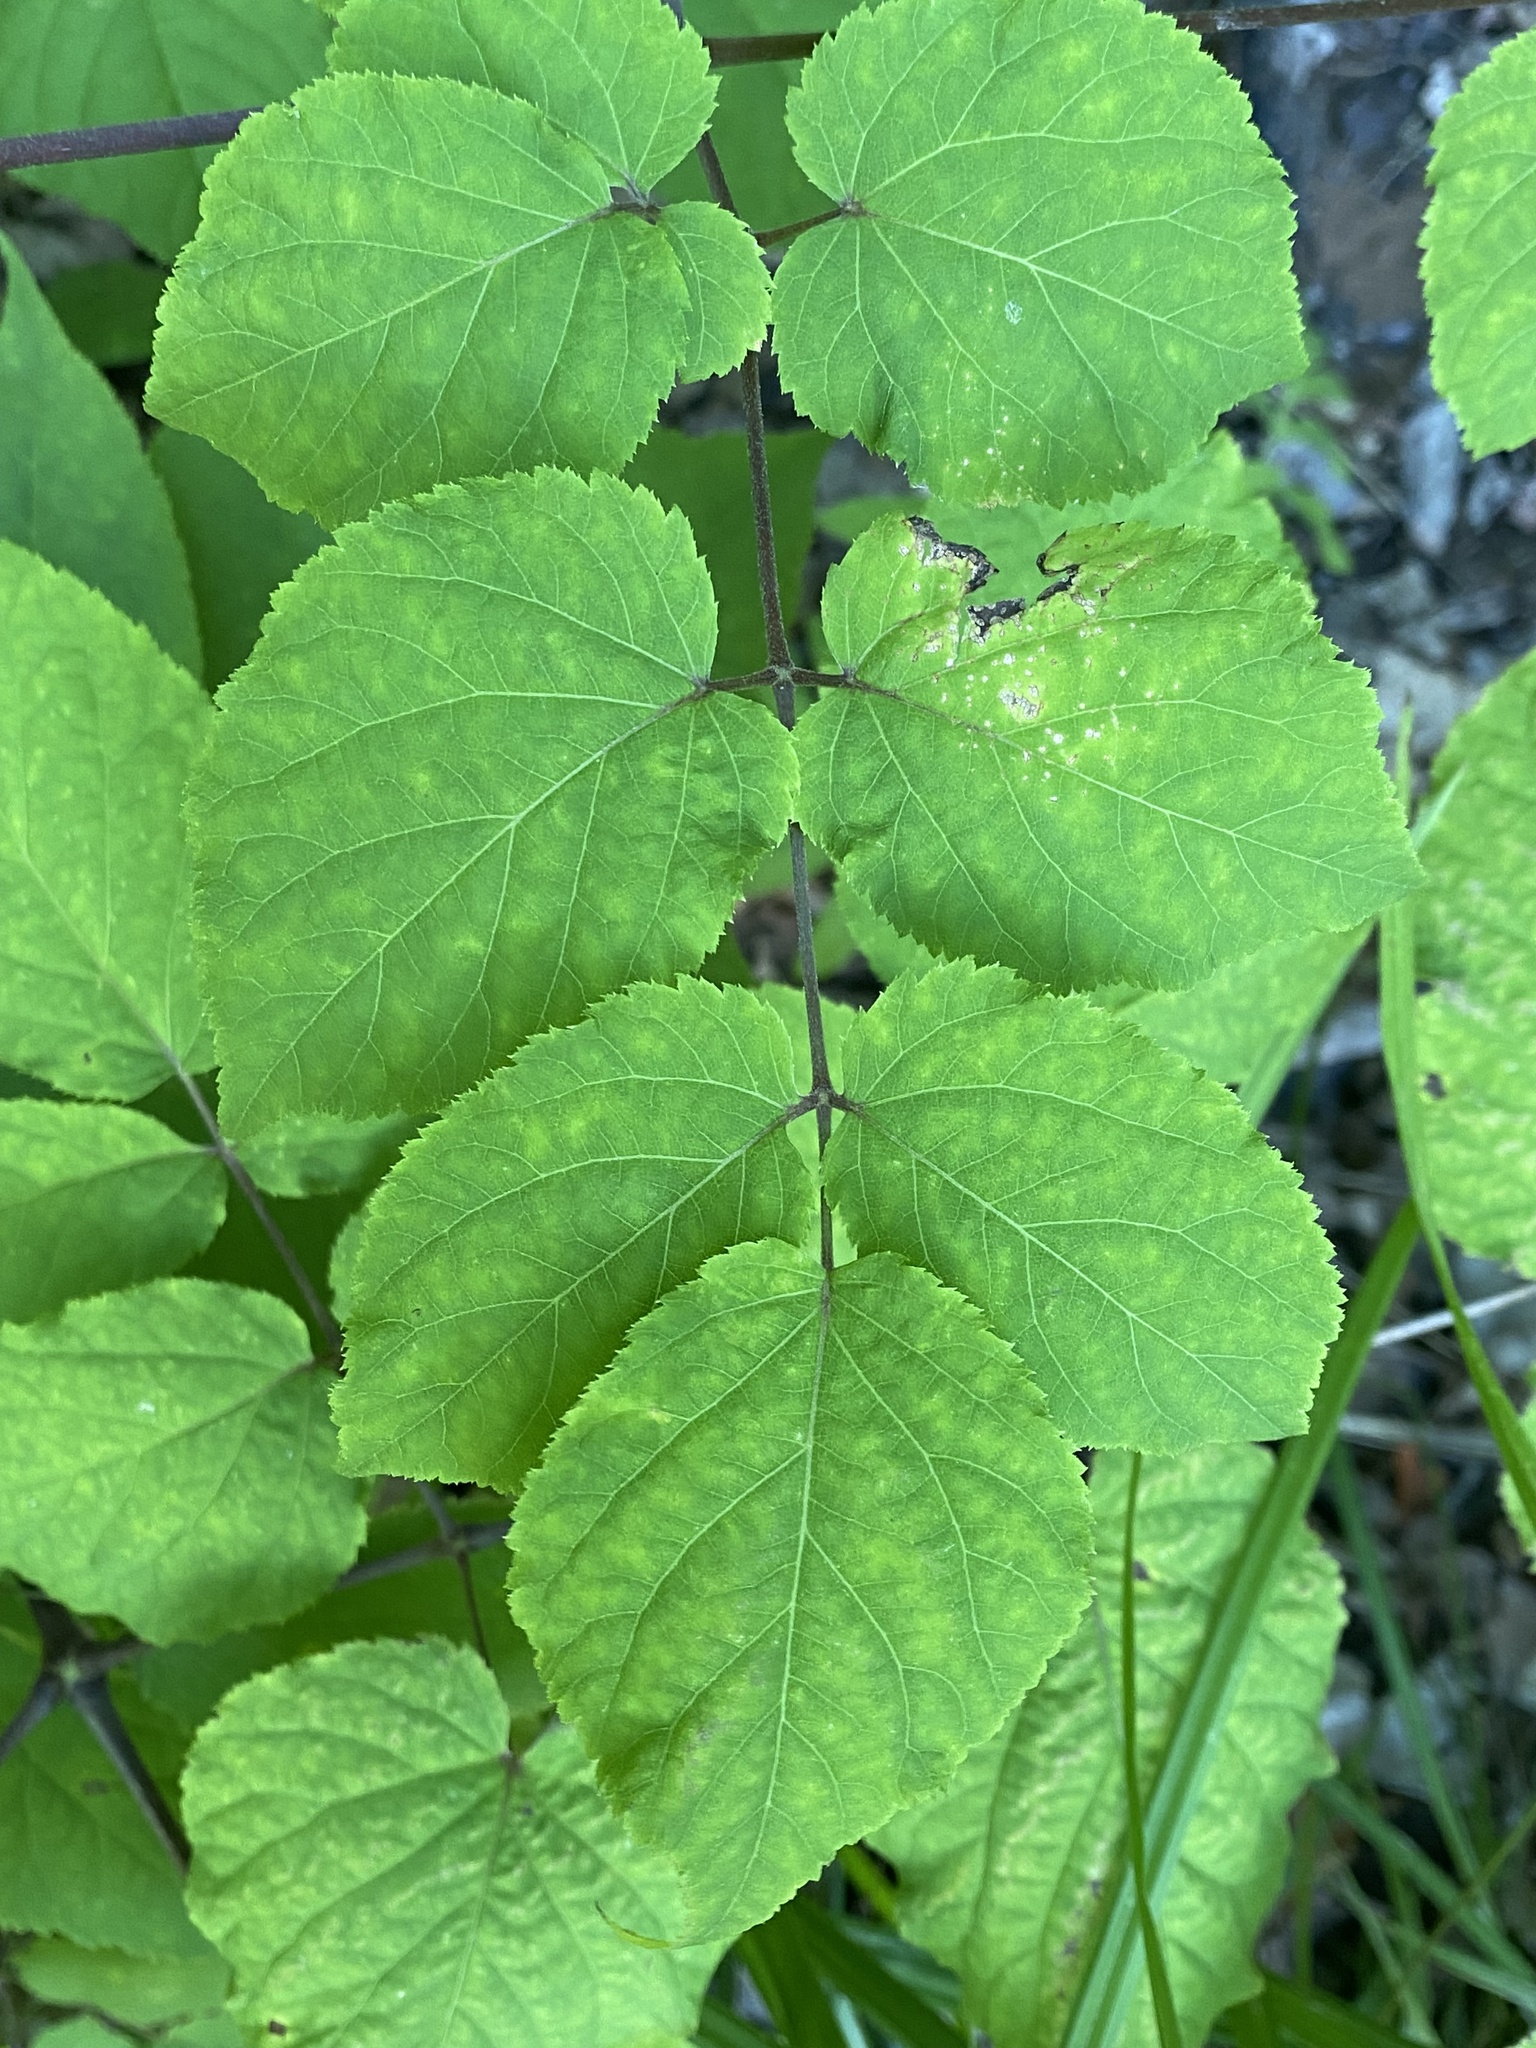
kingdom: Plantae
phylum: Tracheophyta
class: Magnoliopsida
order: Apiales
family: Araliaceae
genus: Aralia
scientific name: Aralia racemosa
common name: American-spikenard
